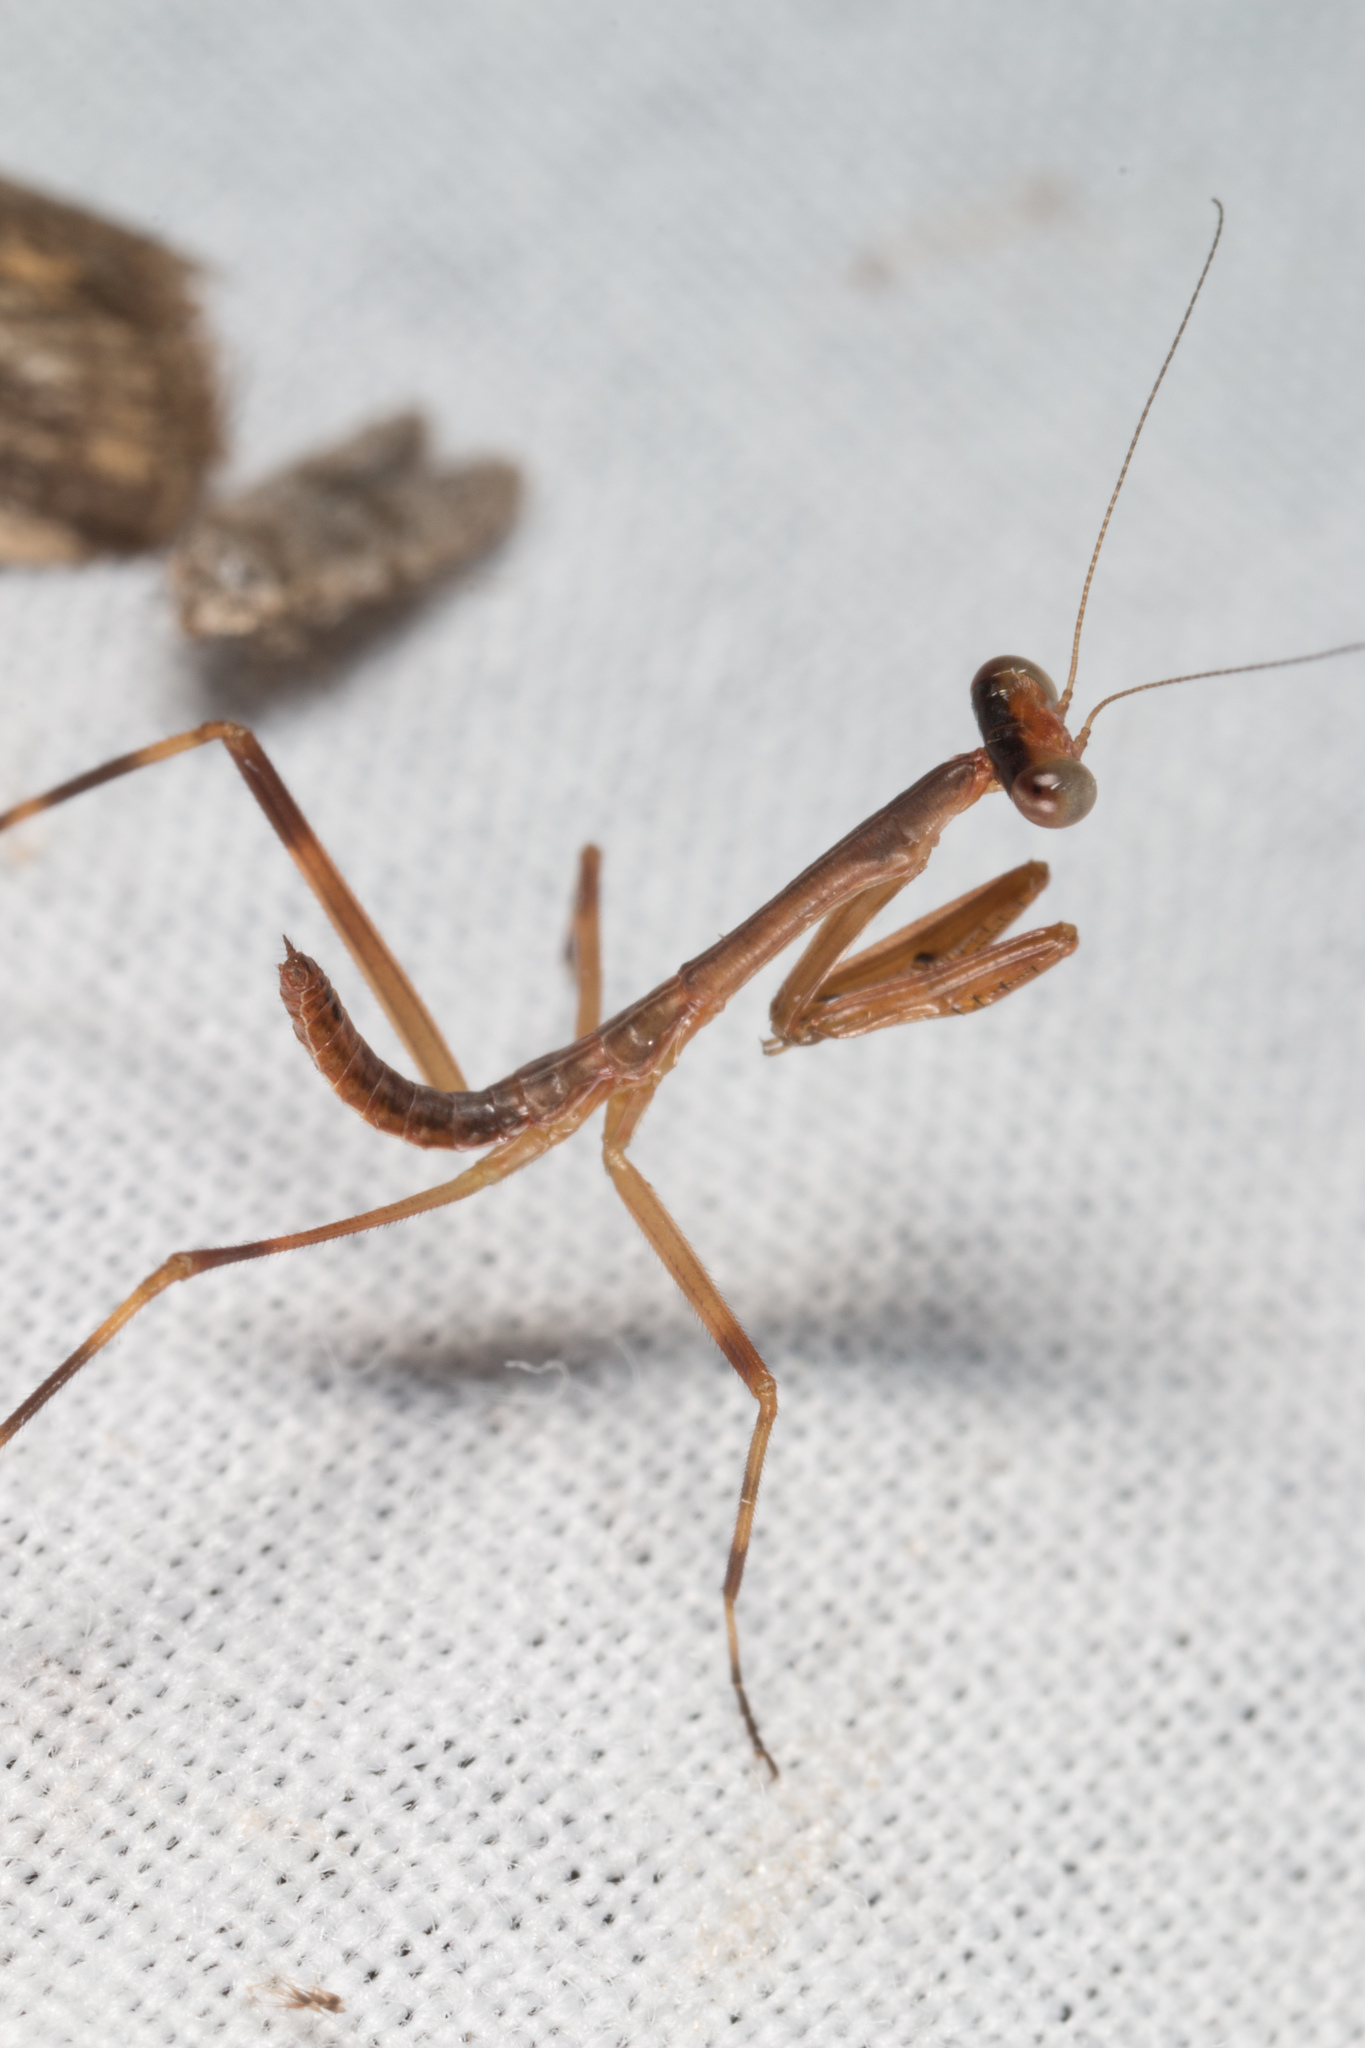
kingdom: Animalia
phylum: Arthropoda
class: Insecta
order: Mantodea
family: Mantidae
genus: Stagmomantis
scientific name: Stagmomantis domingensis
